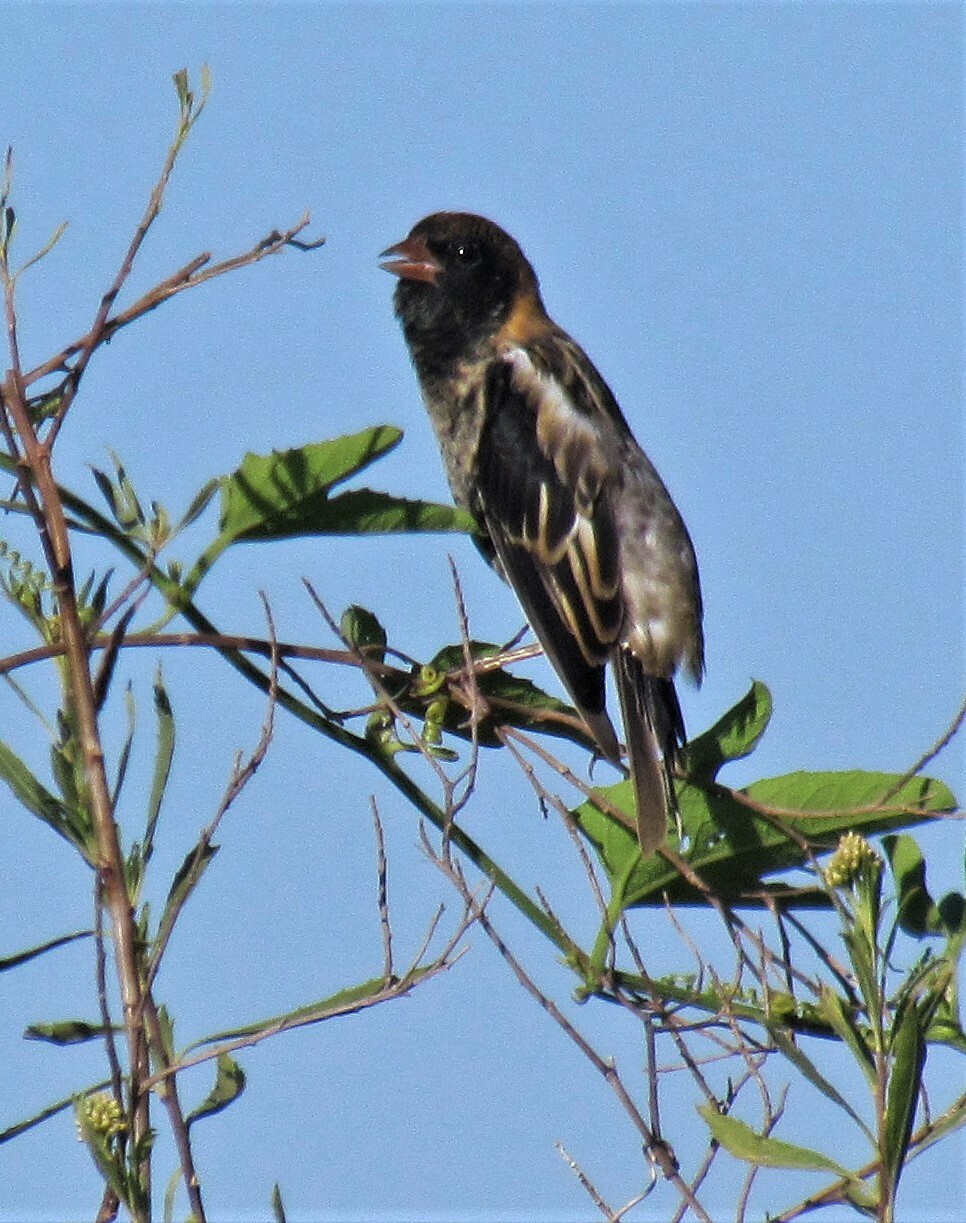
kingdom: Animalia
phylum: Chordata
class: Aves
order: Passeriformes
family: Icteridae
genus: Dolichonyx
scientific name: Dolichonyx oryzivorus
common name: Bobolink
